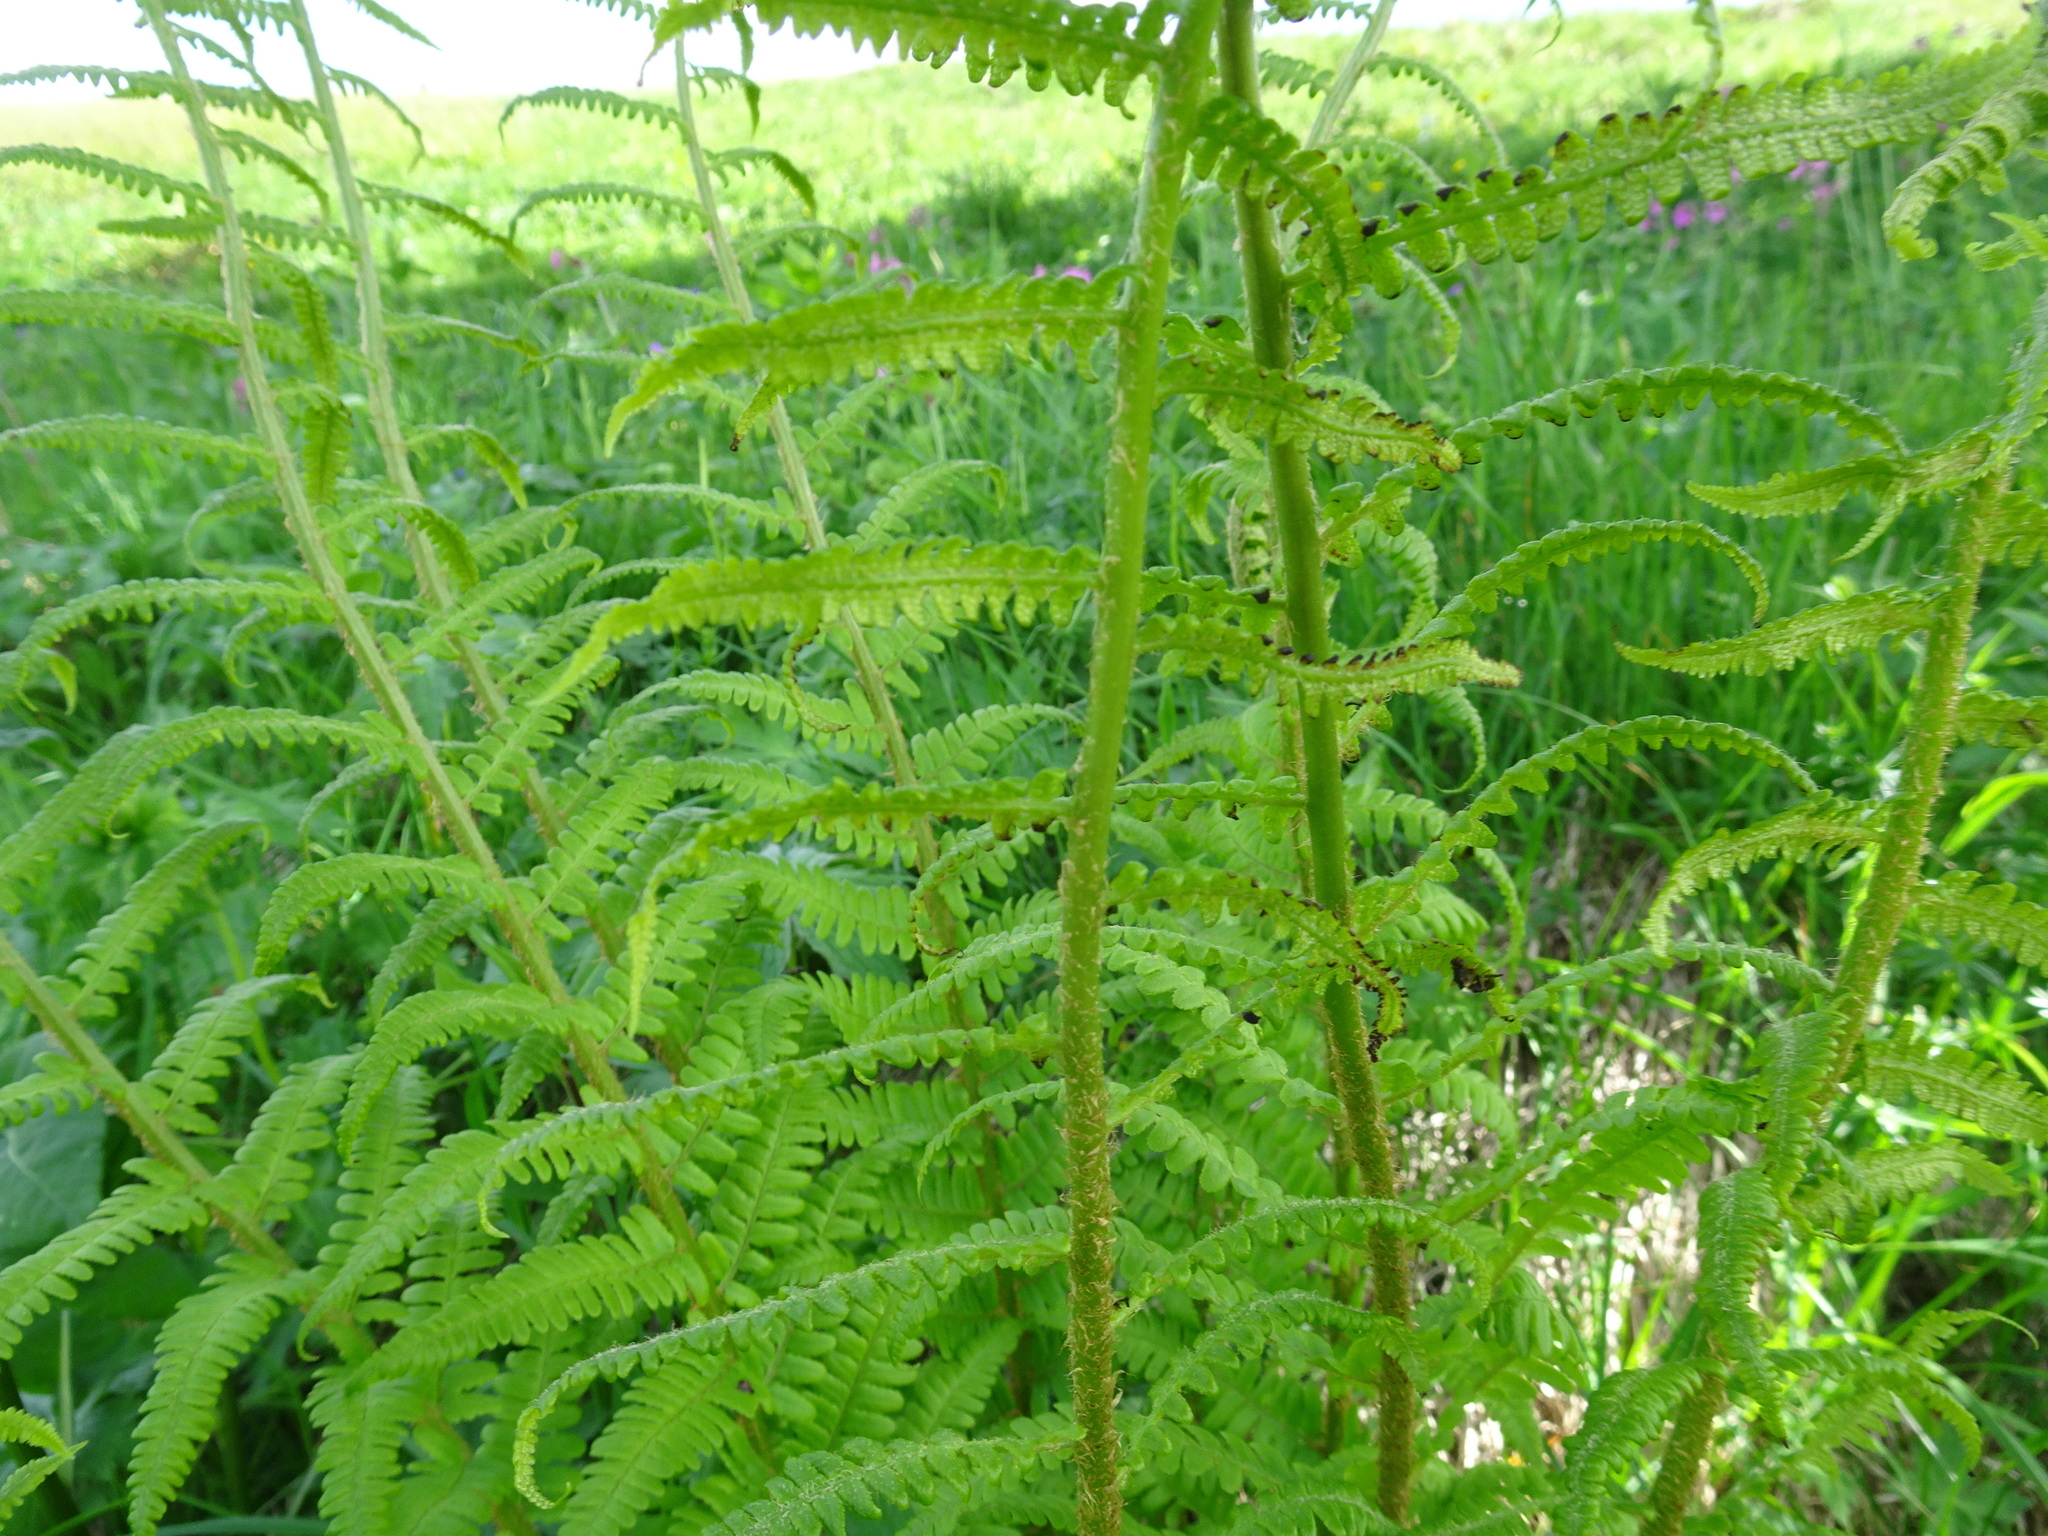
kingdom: Plantae
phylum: Tracheophyta
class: Polypodiopsida
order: Polypodiales
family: Dryopteridaceae
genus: Dryopteris
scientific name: Dryopteris filix-mas
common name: Male fern
